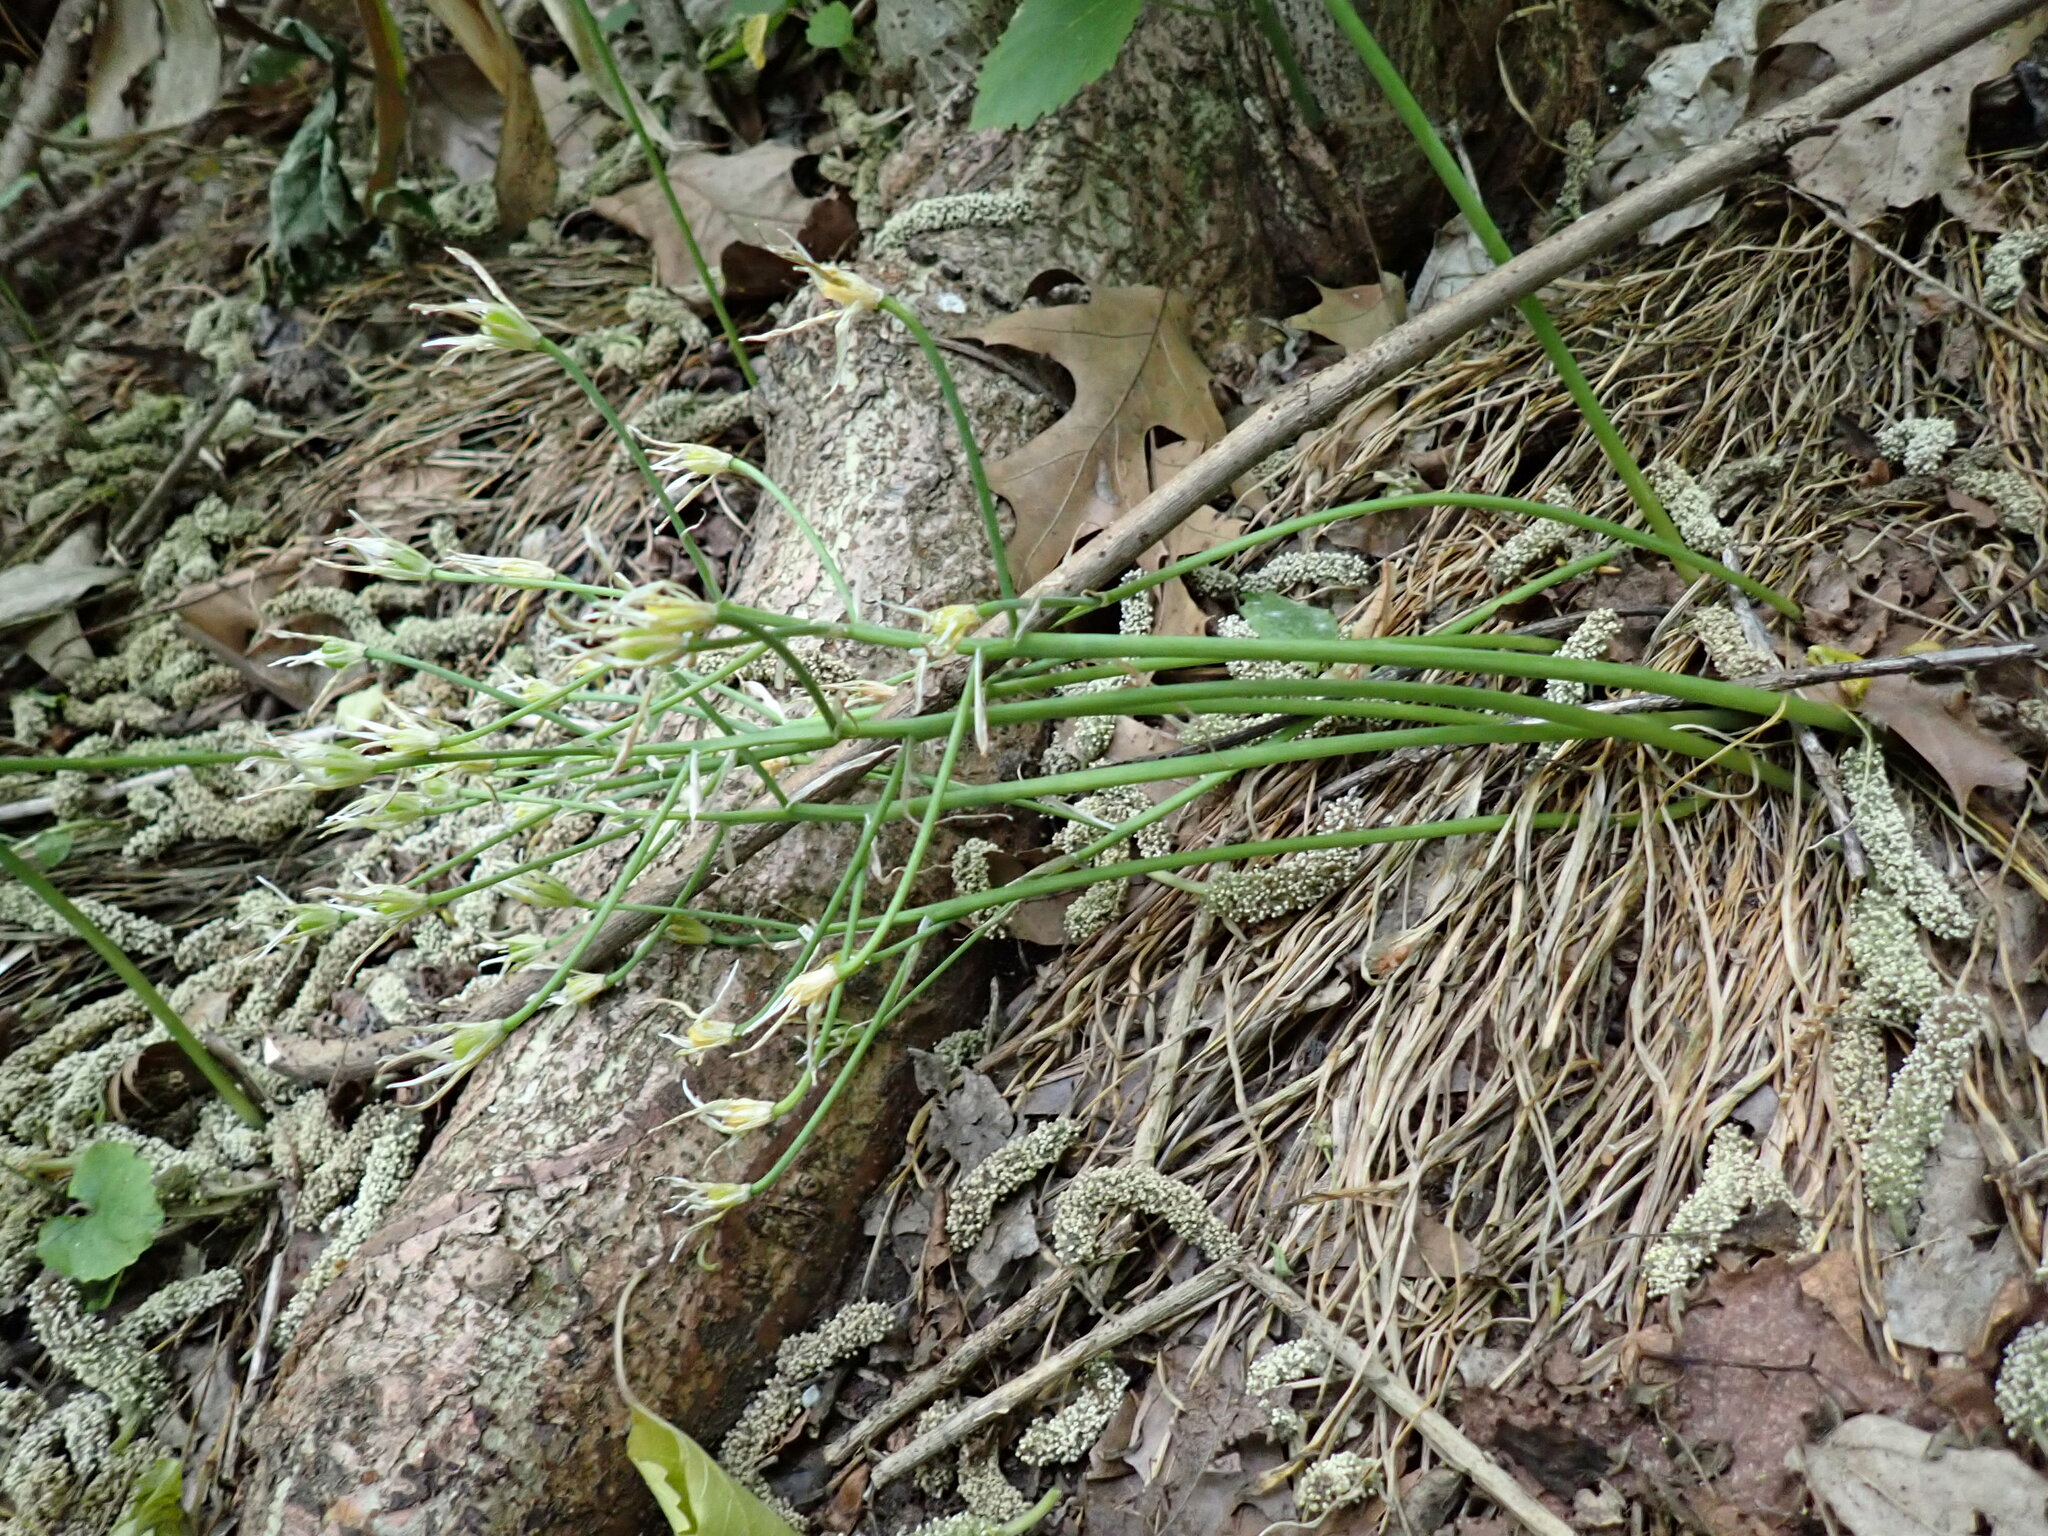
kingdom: Plantae
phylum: Tracheophyta
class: Liliopsida
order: Asparagales
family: Asparagaceae
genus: Ornithogalum
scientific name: Ornithogalum umbellatum
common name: Garden star-of-bethlehem
